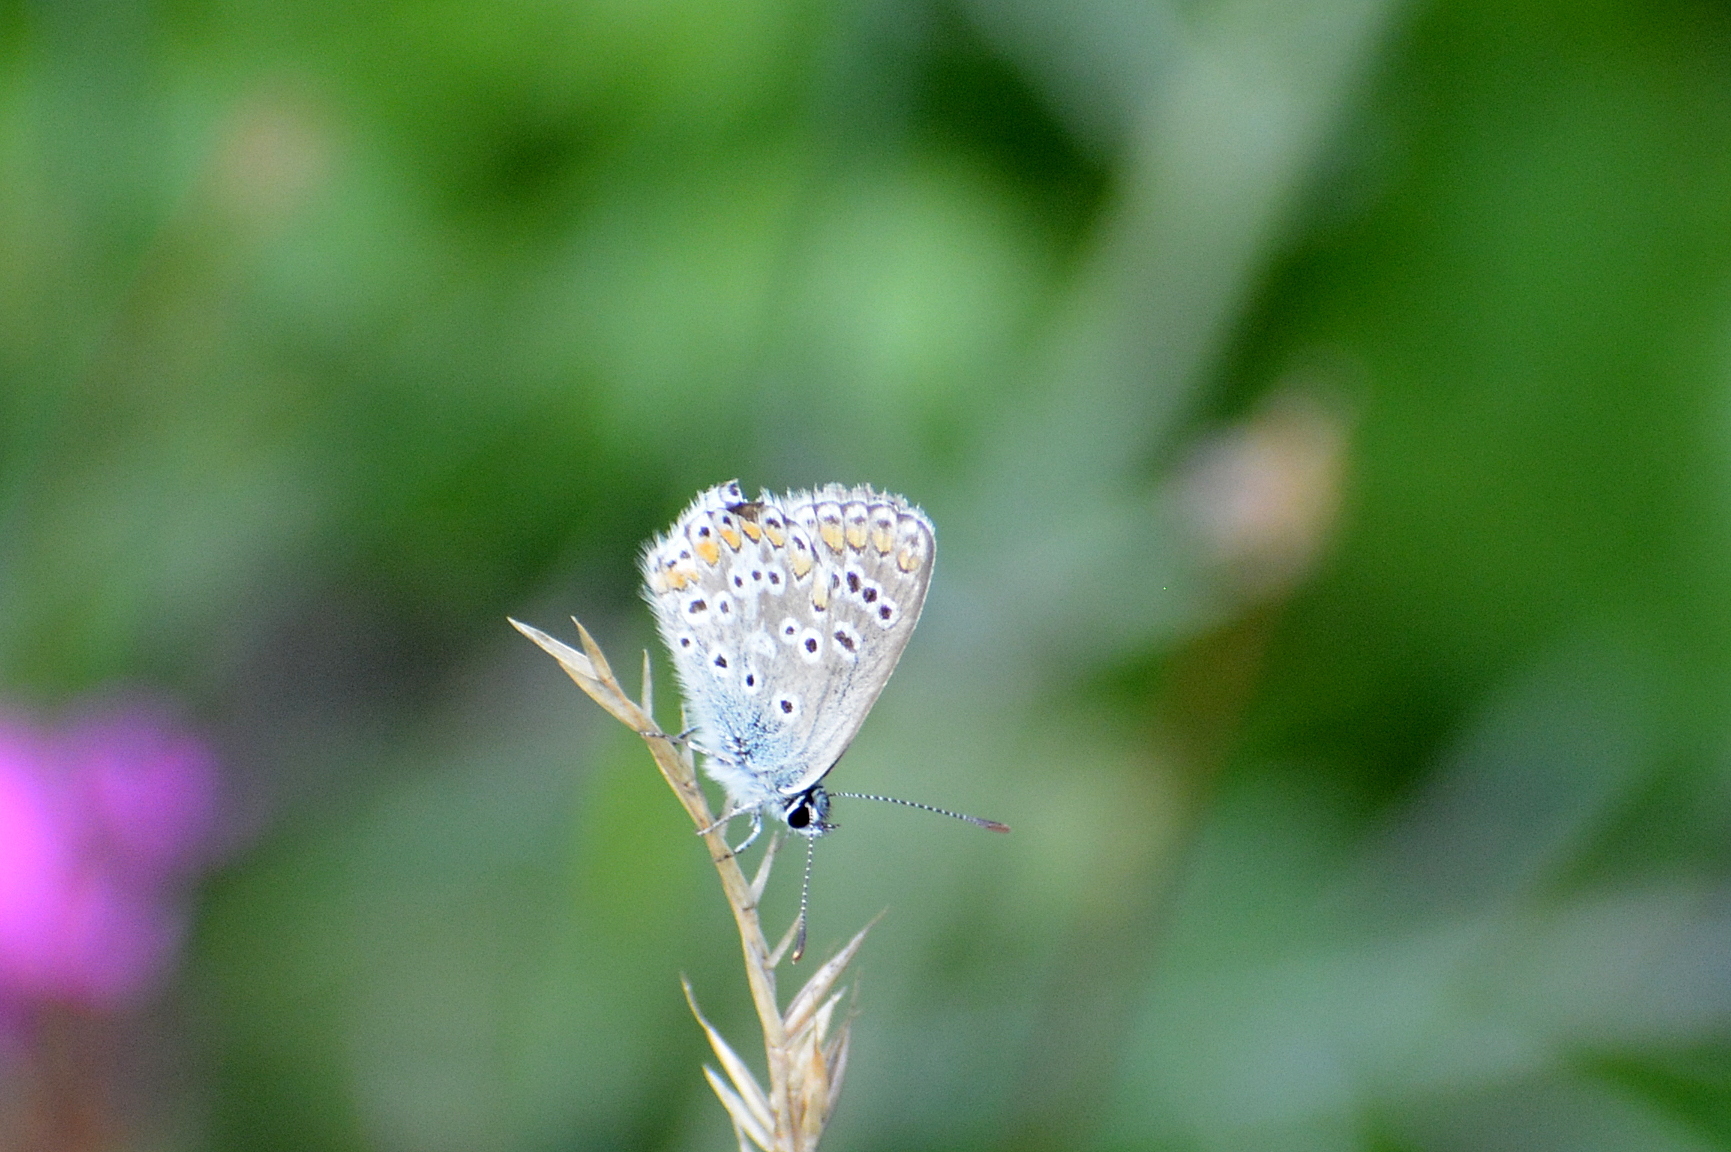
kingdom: Animalia
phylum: Arthropoda
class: Insecta
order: Lepidoptera
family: Lycaenidae
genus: Aricia
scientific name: Aricia agestis
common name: Brown argus
